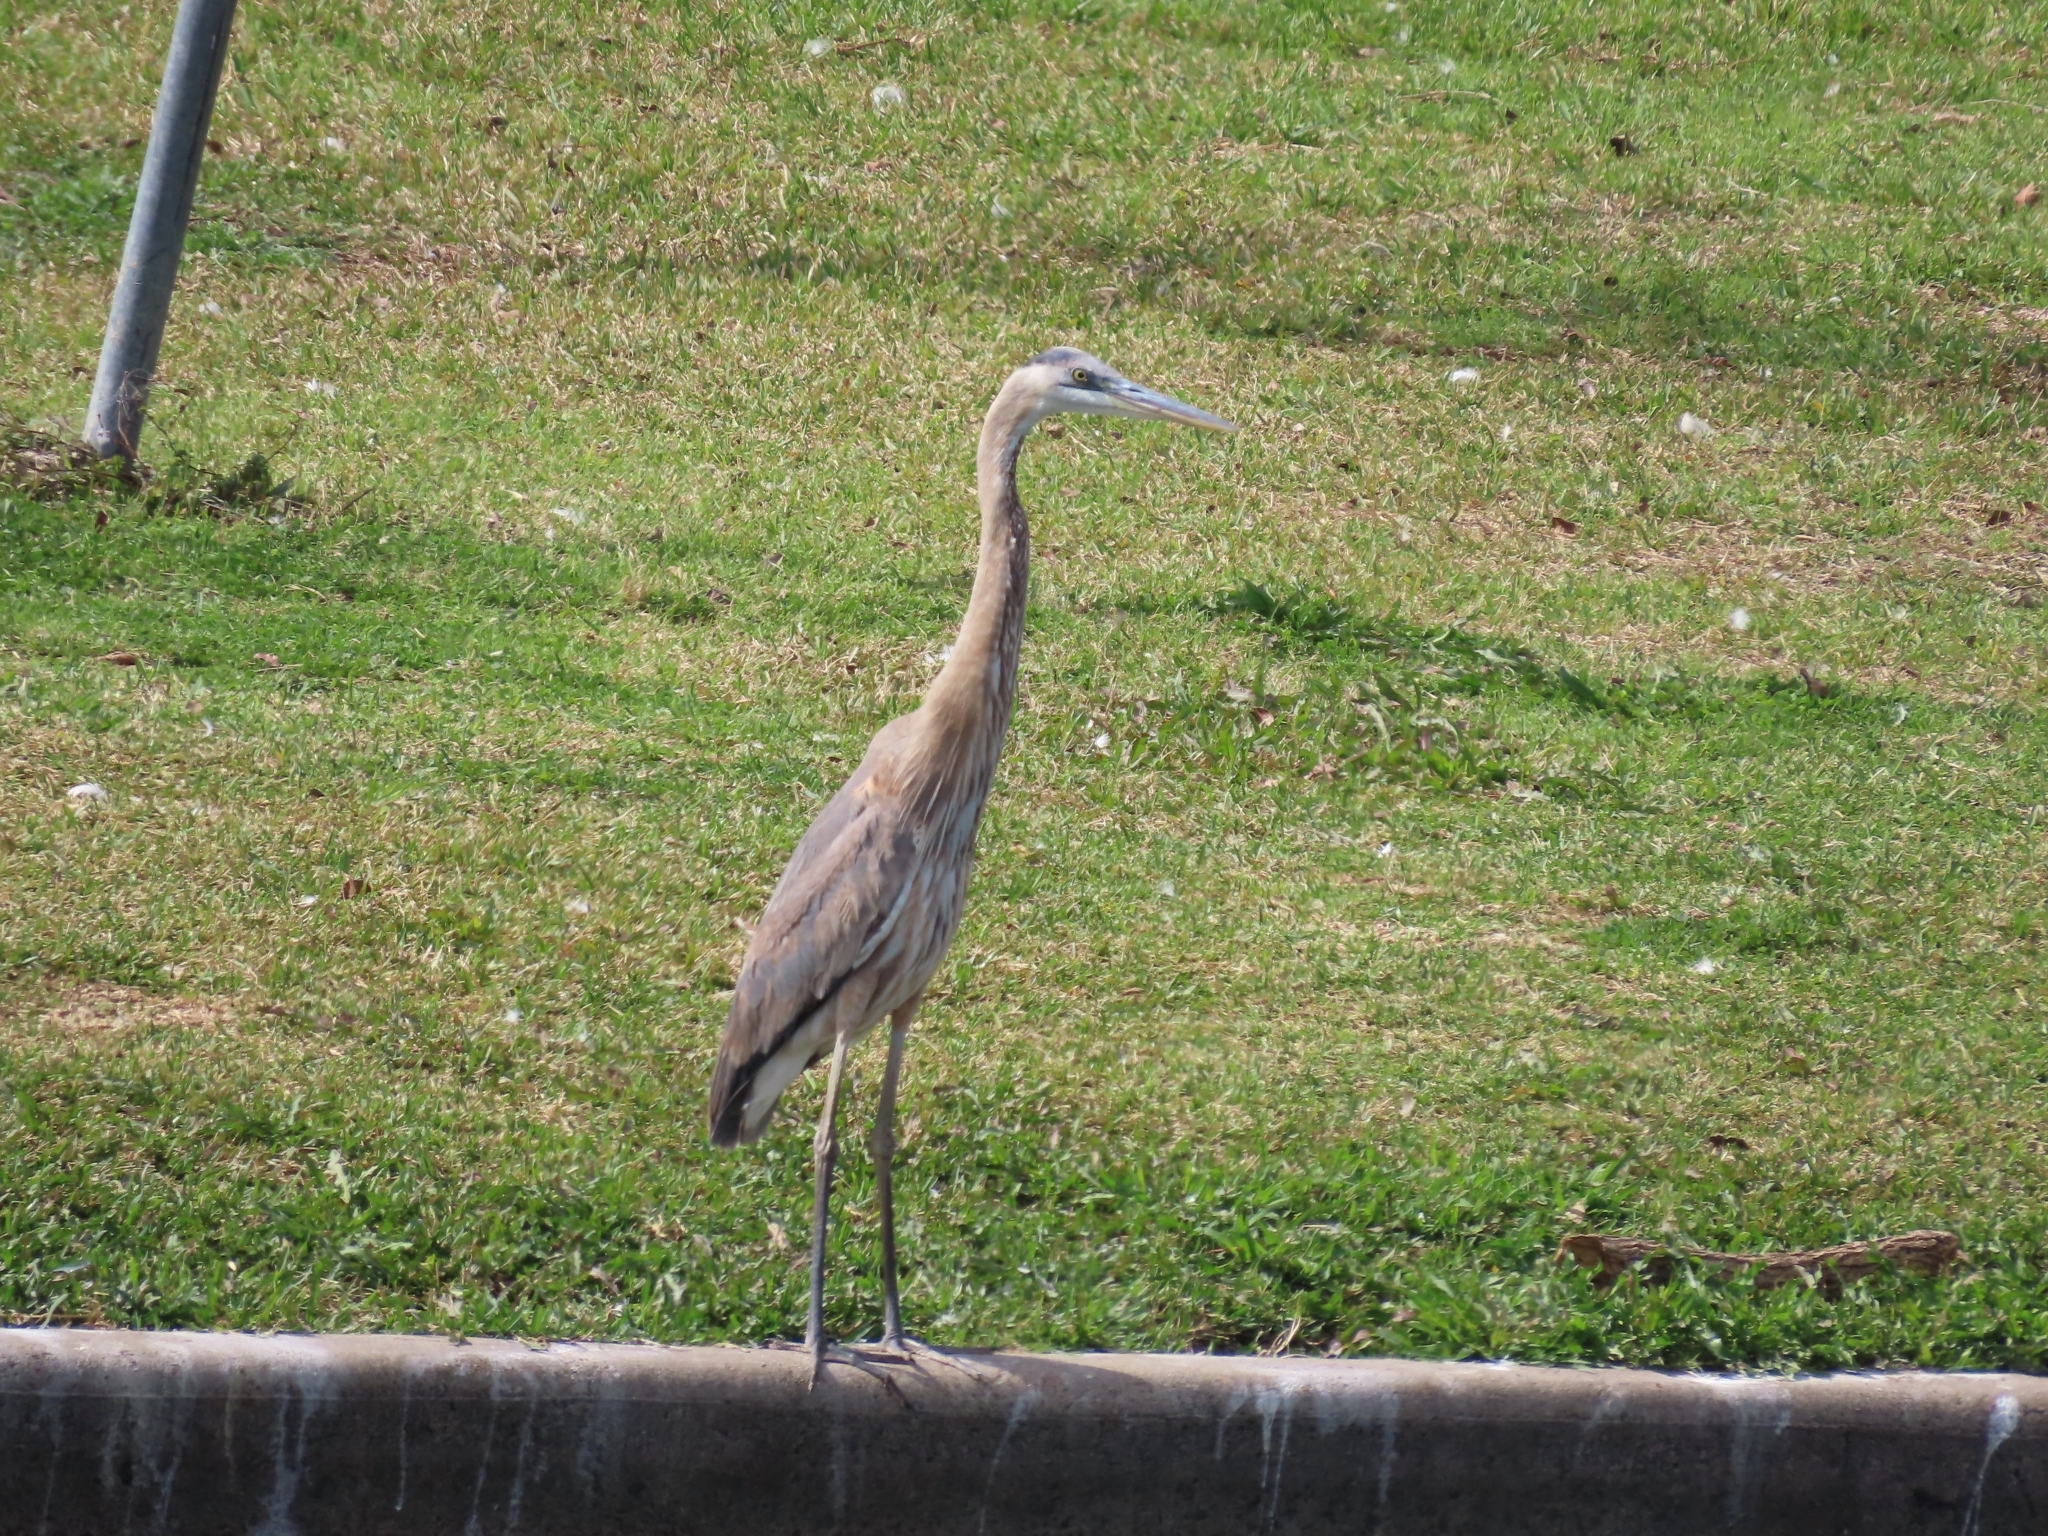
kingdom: Animalia
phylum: Chordata
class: Aves
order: Pelecaniformes
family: Ardeidae
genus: Ardea
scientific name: Ardea herodias
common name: Great blue heron
